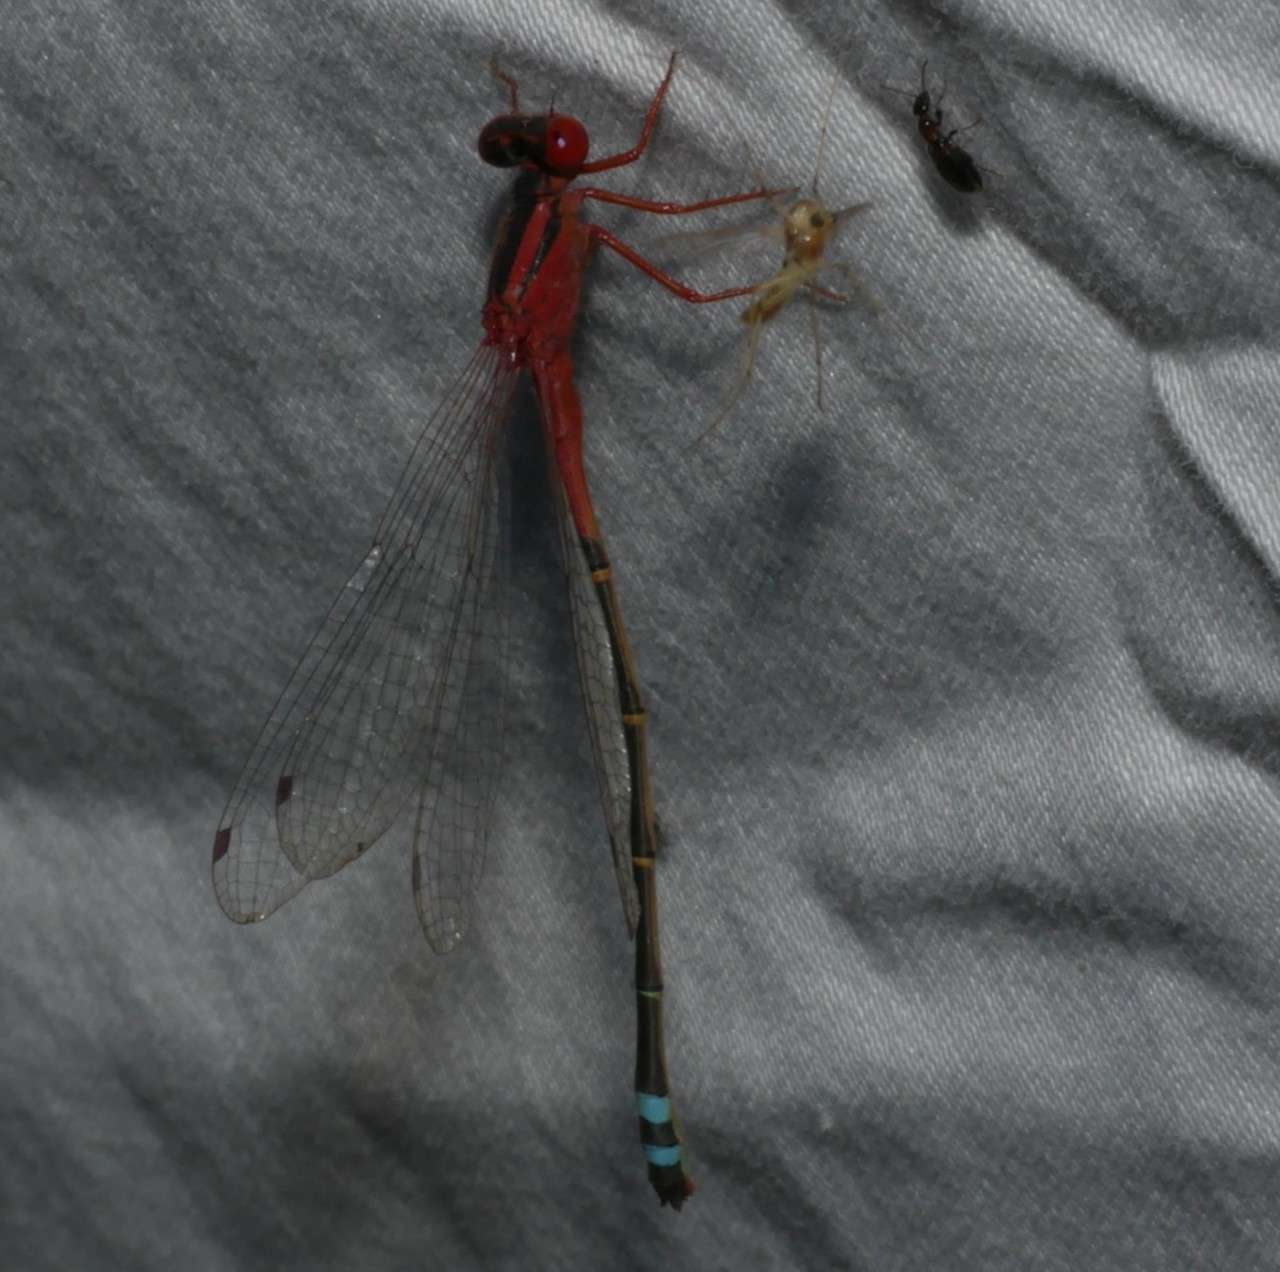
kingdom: Animalia
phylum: Arthropoda
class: Insecta
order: Odonata
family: Coenagrionidae
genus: Xanthagrion
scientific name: Xanthagrion erythroneurum
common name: Red and blue damsel
